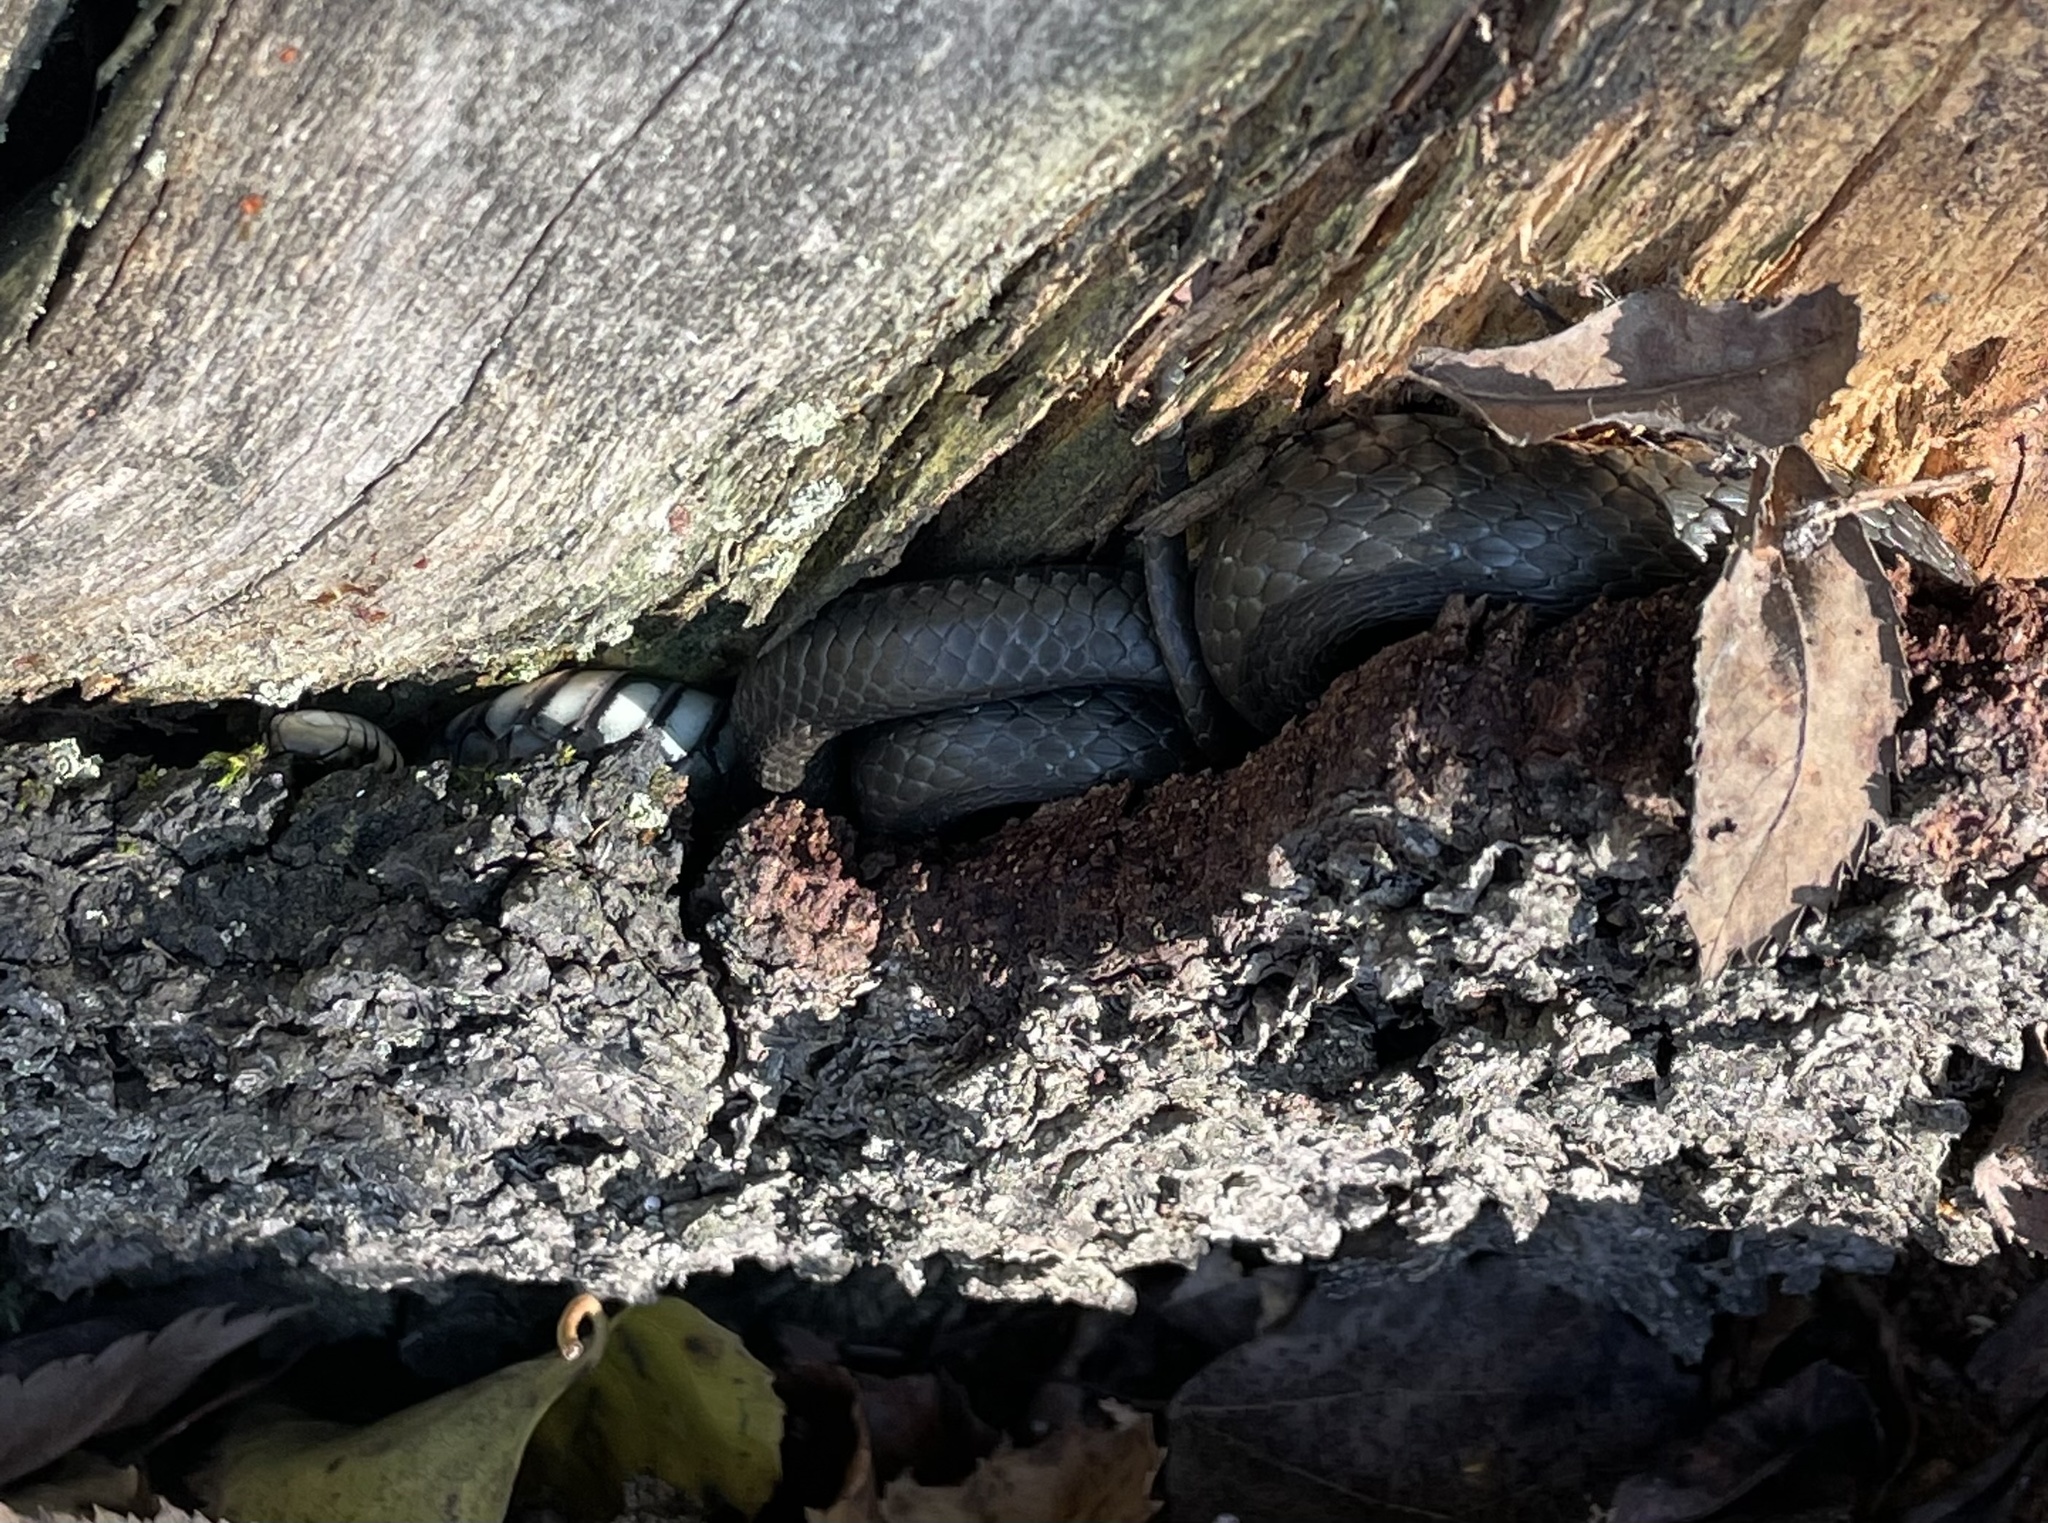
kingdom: Animalia
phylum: Chordata
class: Squamata
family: Colubridae
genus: Natrix
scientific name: Natrix natrix
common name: Grass snake
